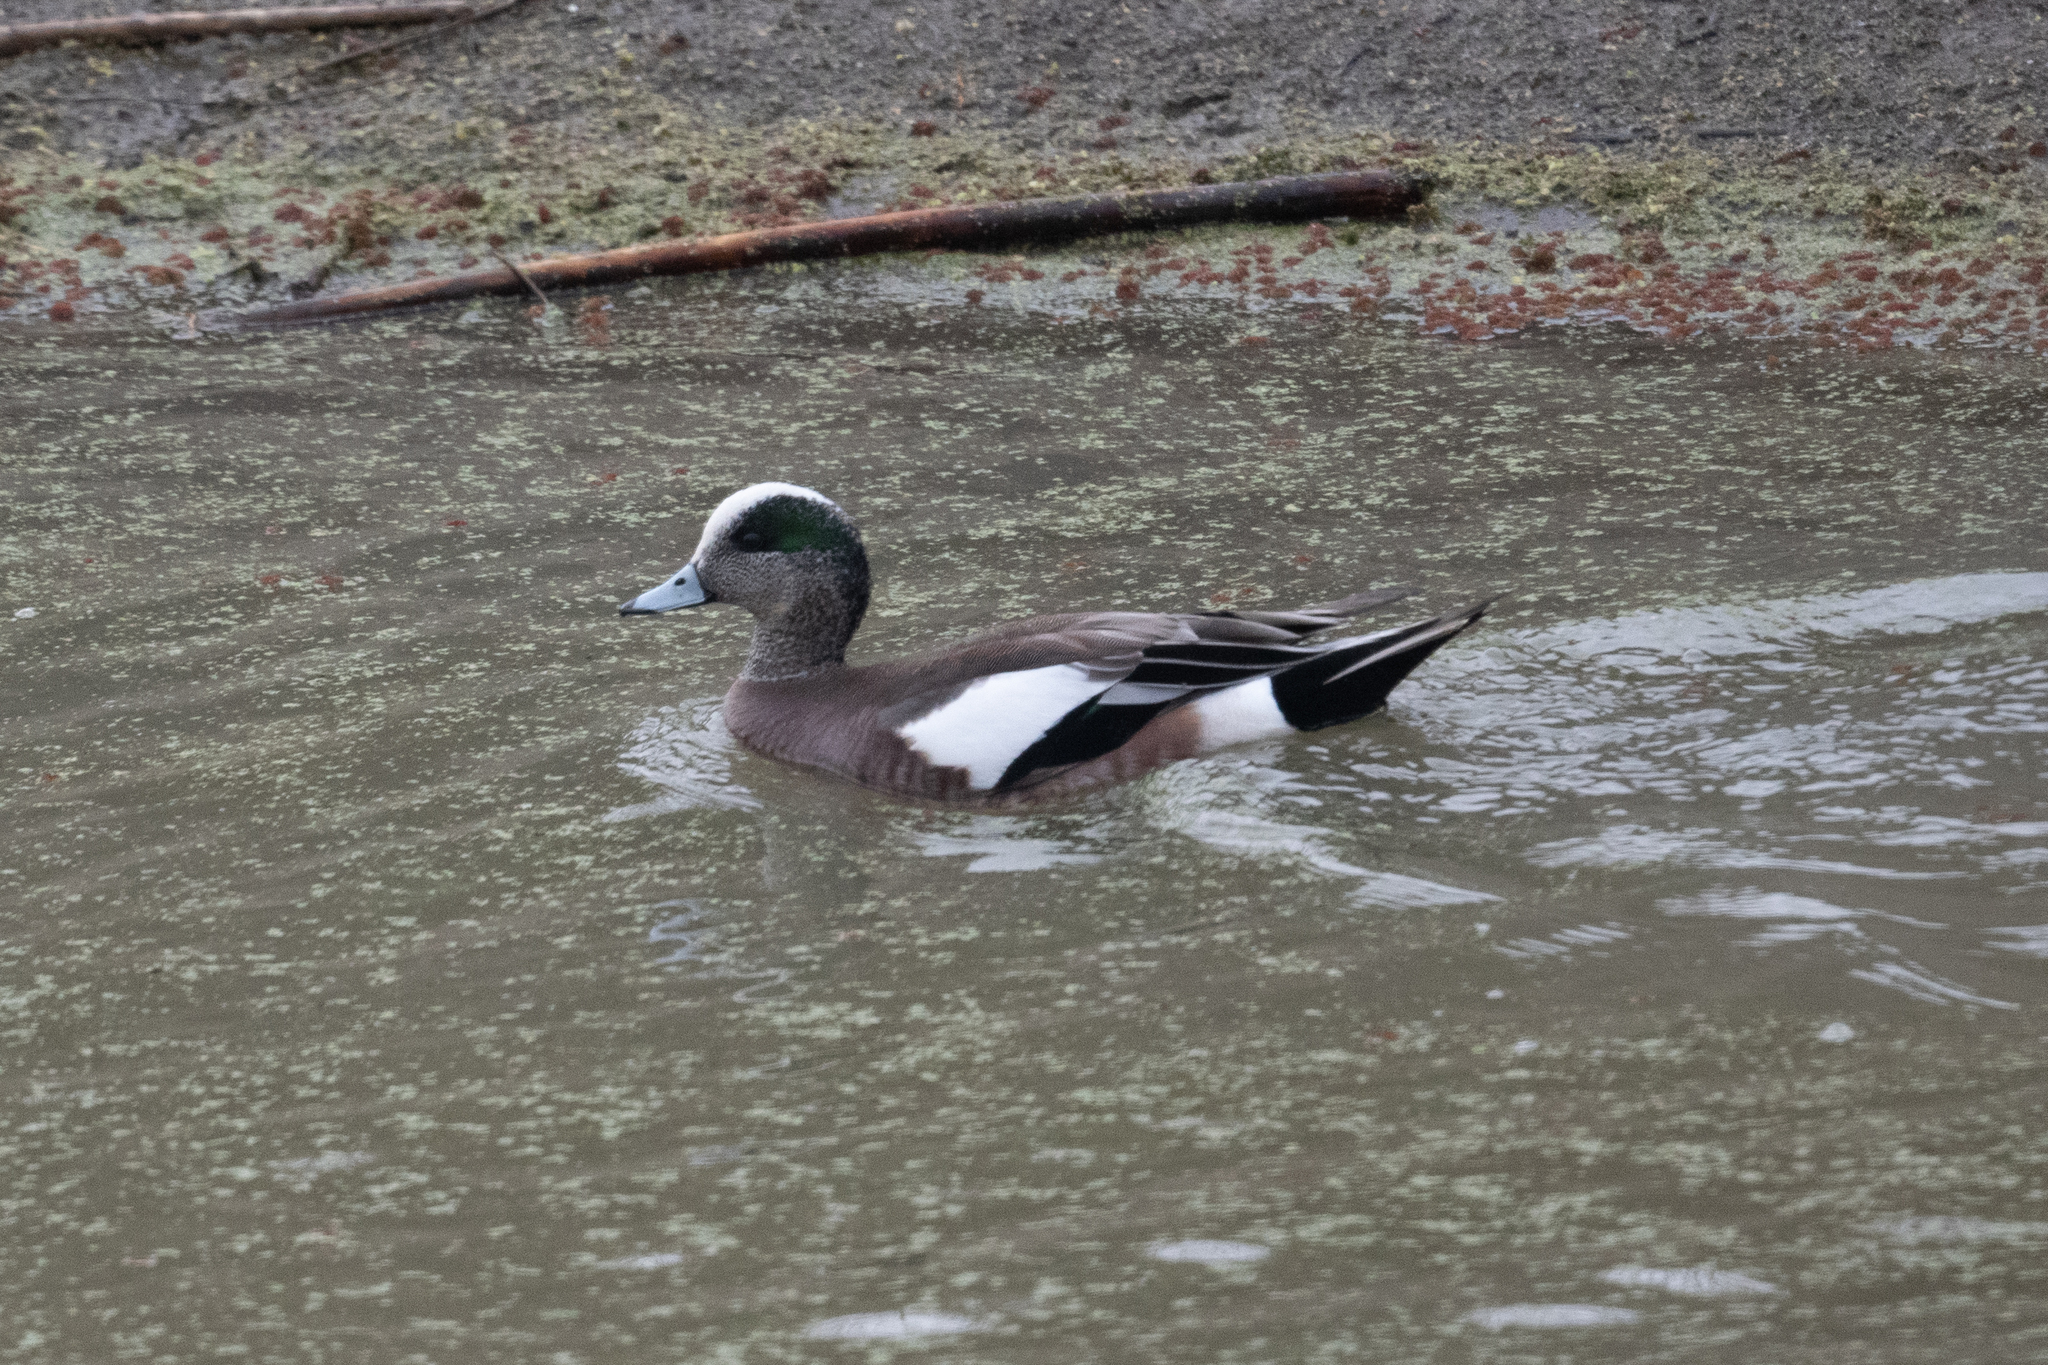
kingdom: Animalia
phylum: Chordata
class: Aves
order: Anseriformes
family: Anatidae
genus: Mareca
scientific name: Mareca americana
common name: American wigeon
